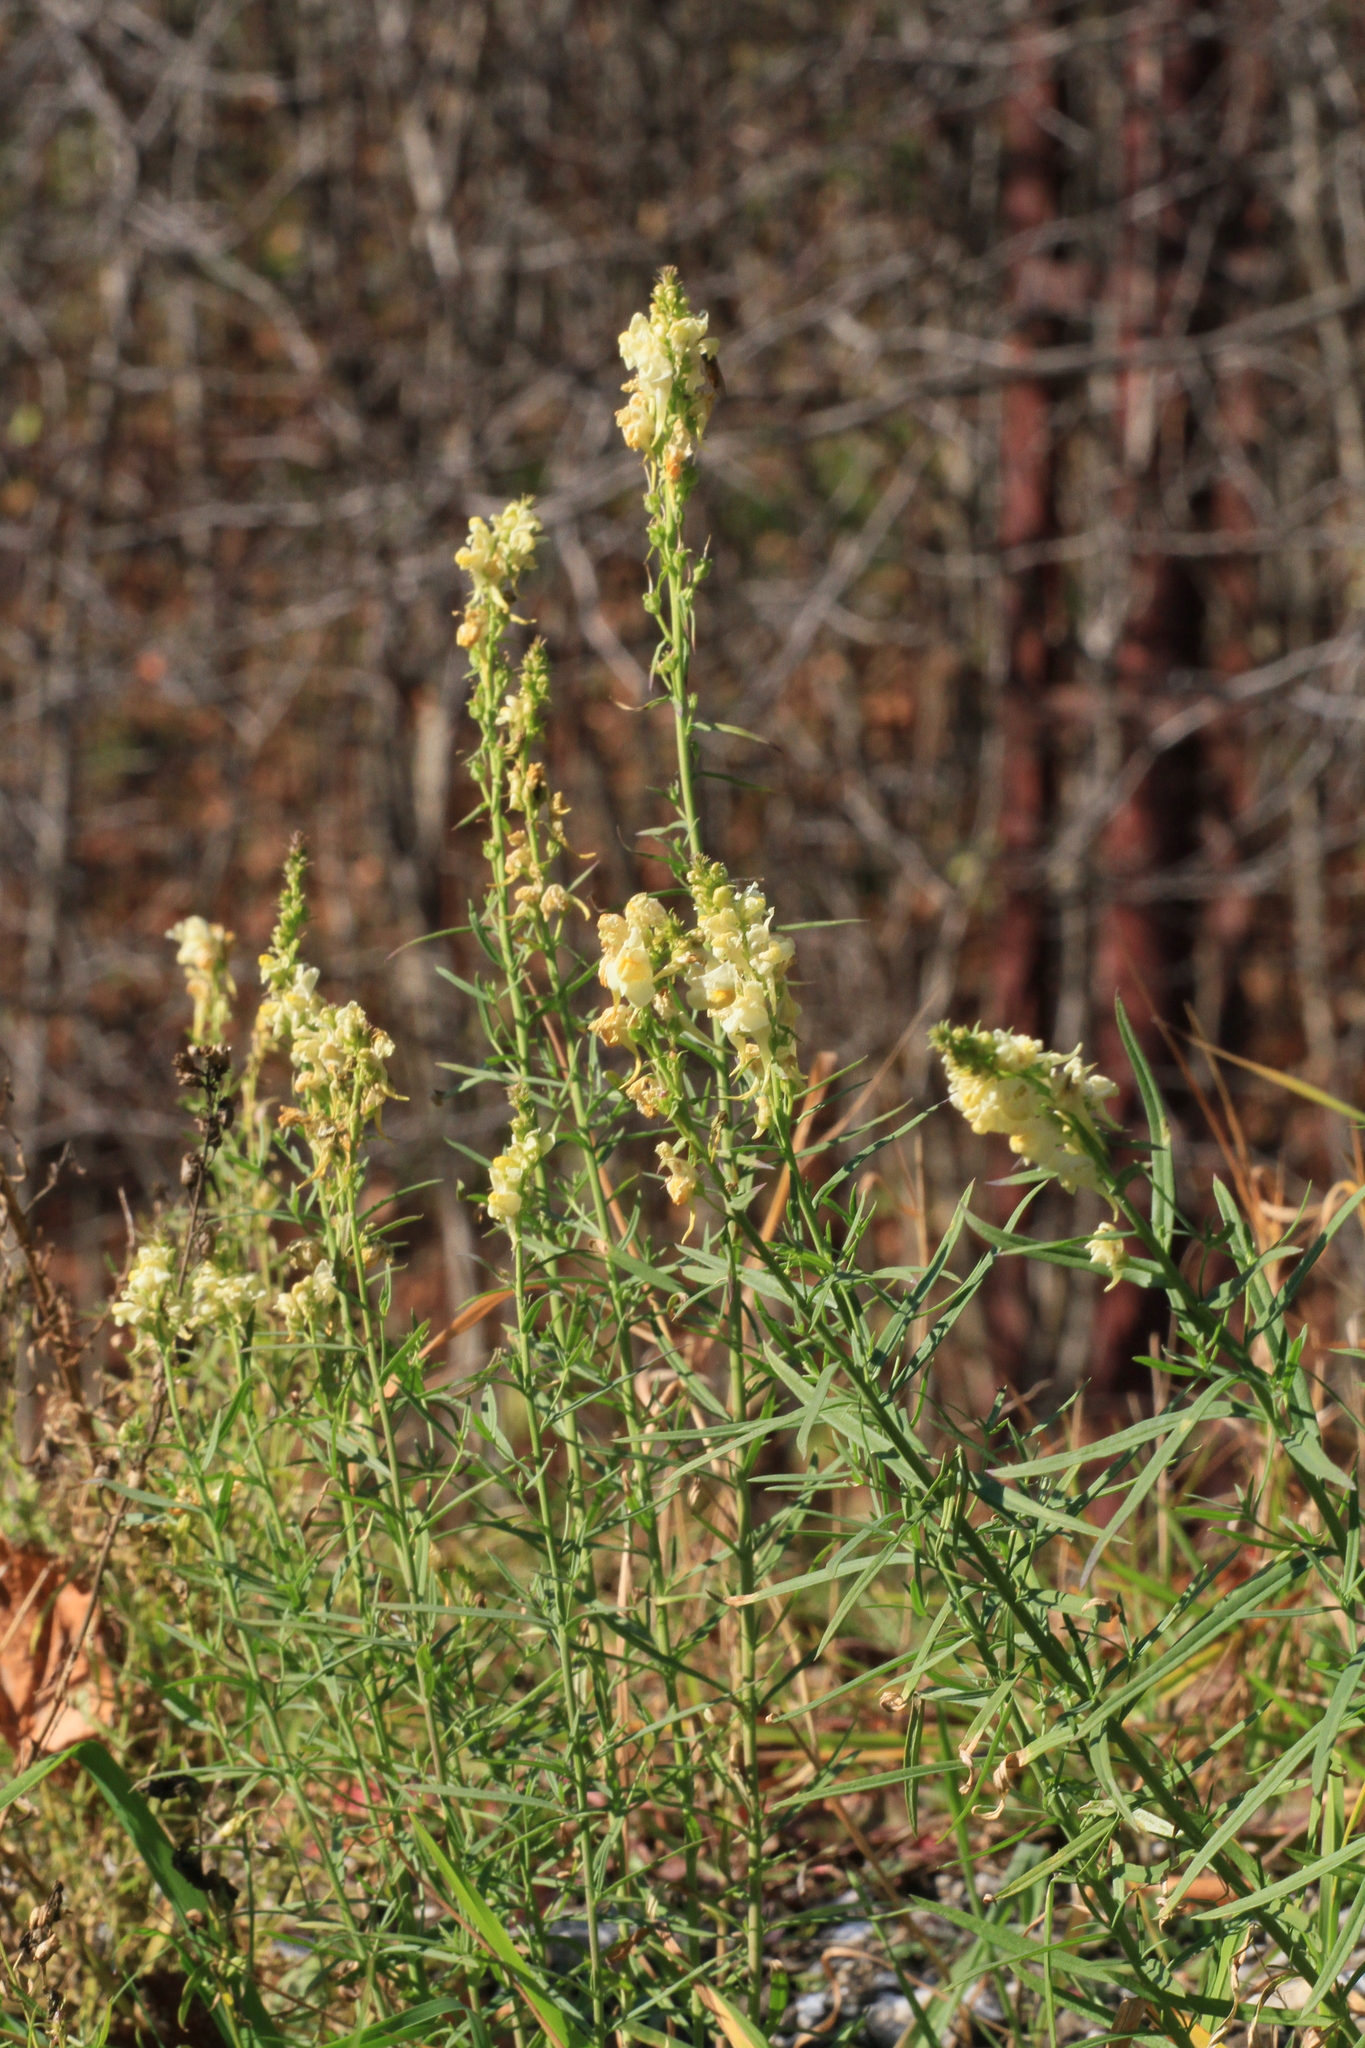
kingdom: Plantae
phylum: Tracheophyta
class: Magnoliopsida
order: Lamiales
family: Plantaginaceae
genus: Linaria
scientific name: Linaria vulgaris
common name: Butter and eggs
